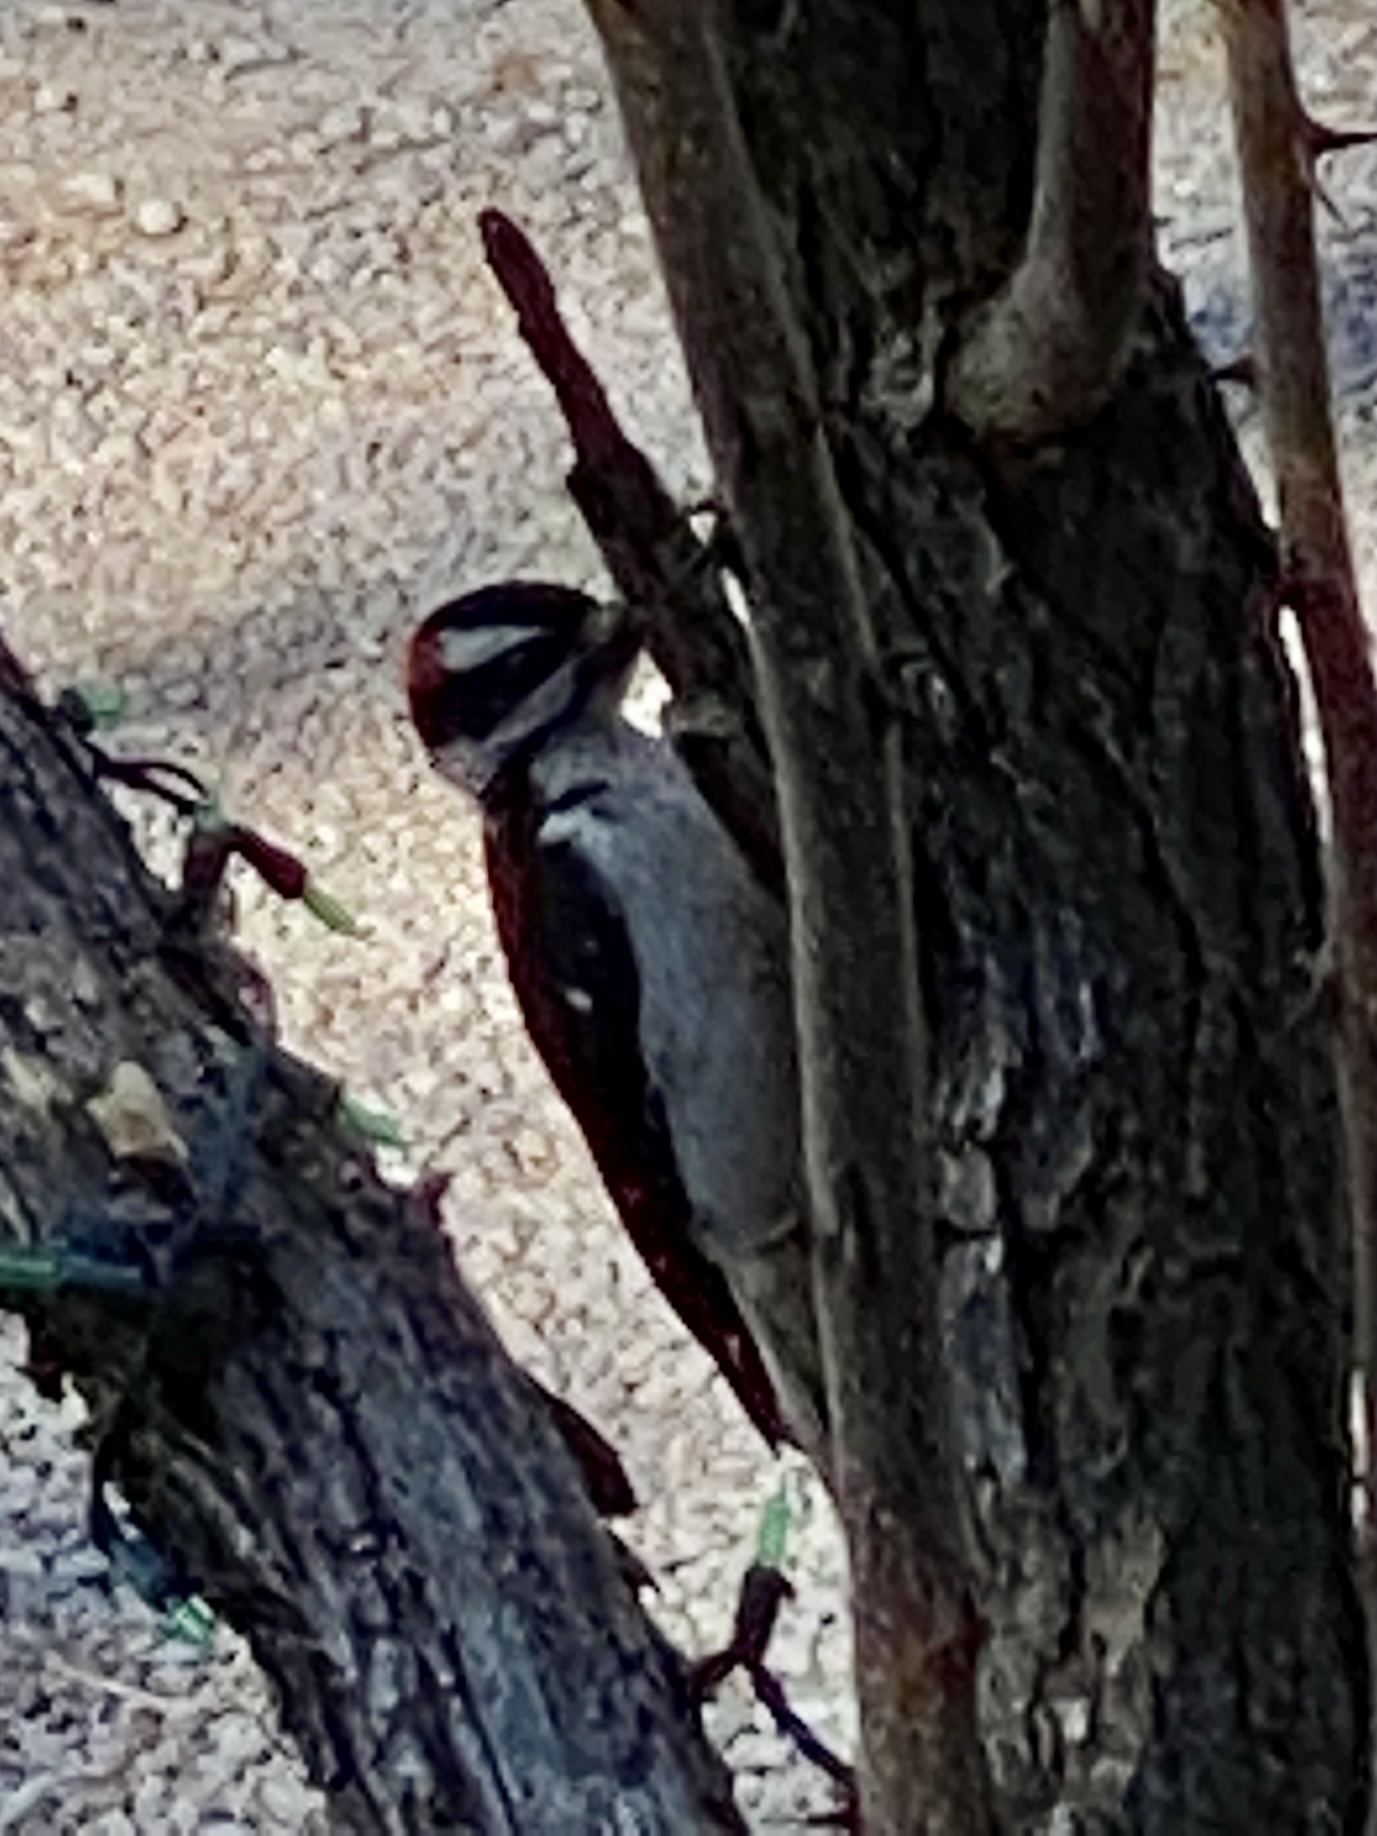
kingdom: Animalia
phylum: Chordata
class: Aves
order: Piciformes
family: Picidae
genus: Leuconotopicus
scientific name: Leuconotopicus villosus
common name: Hairy woodpecker
